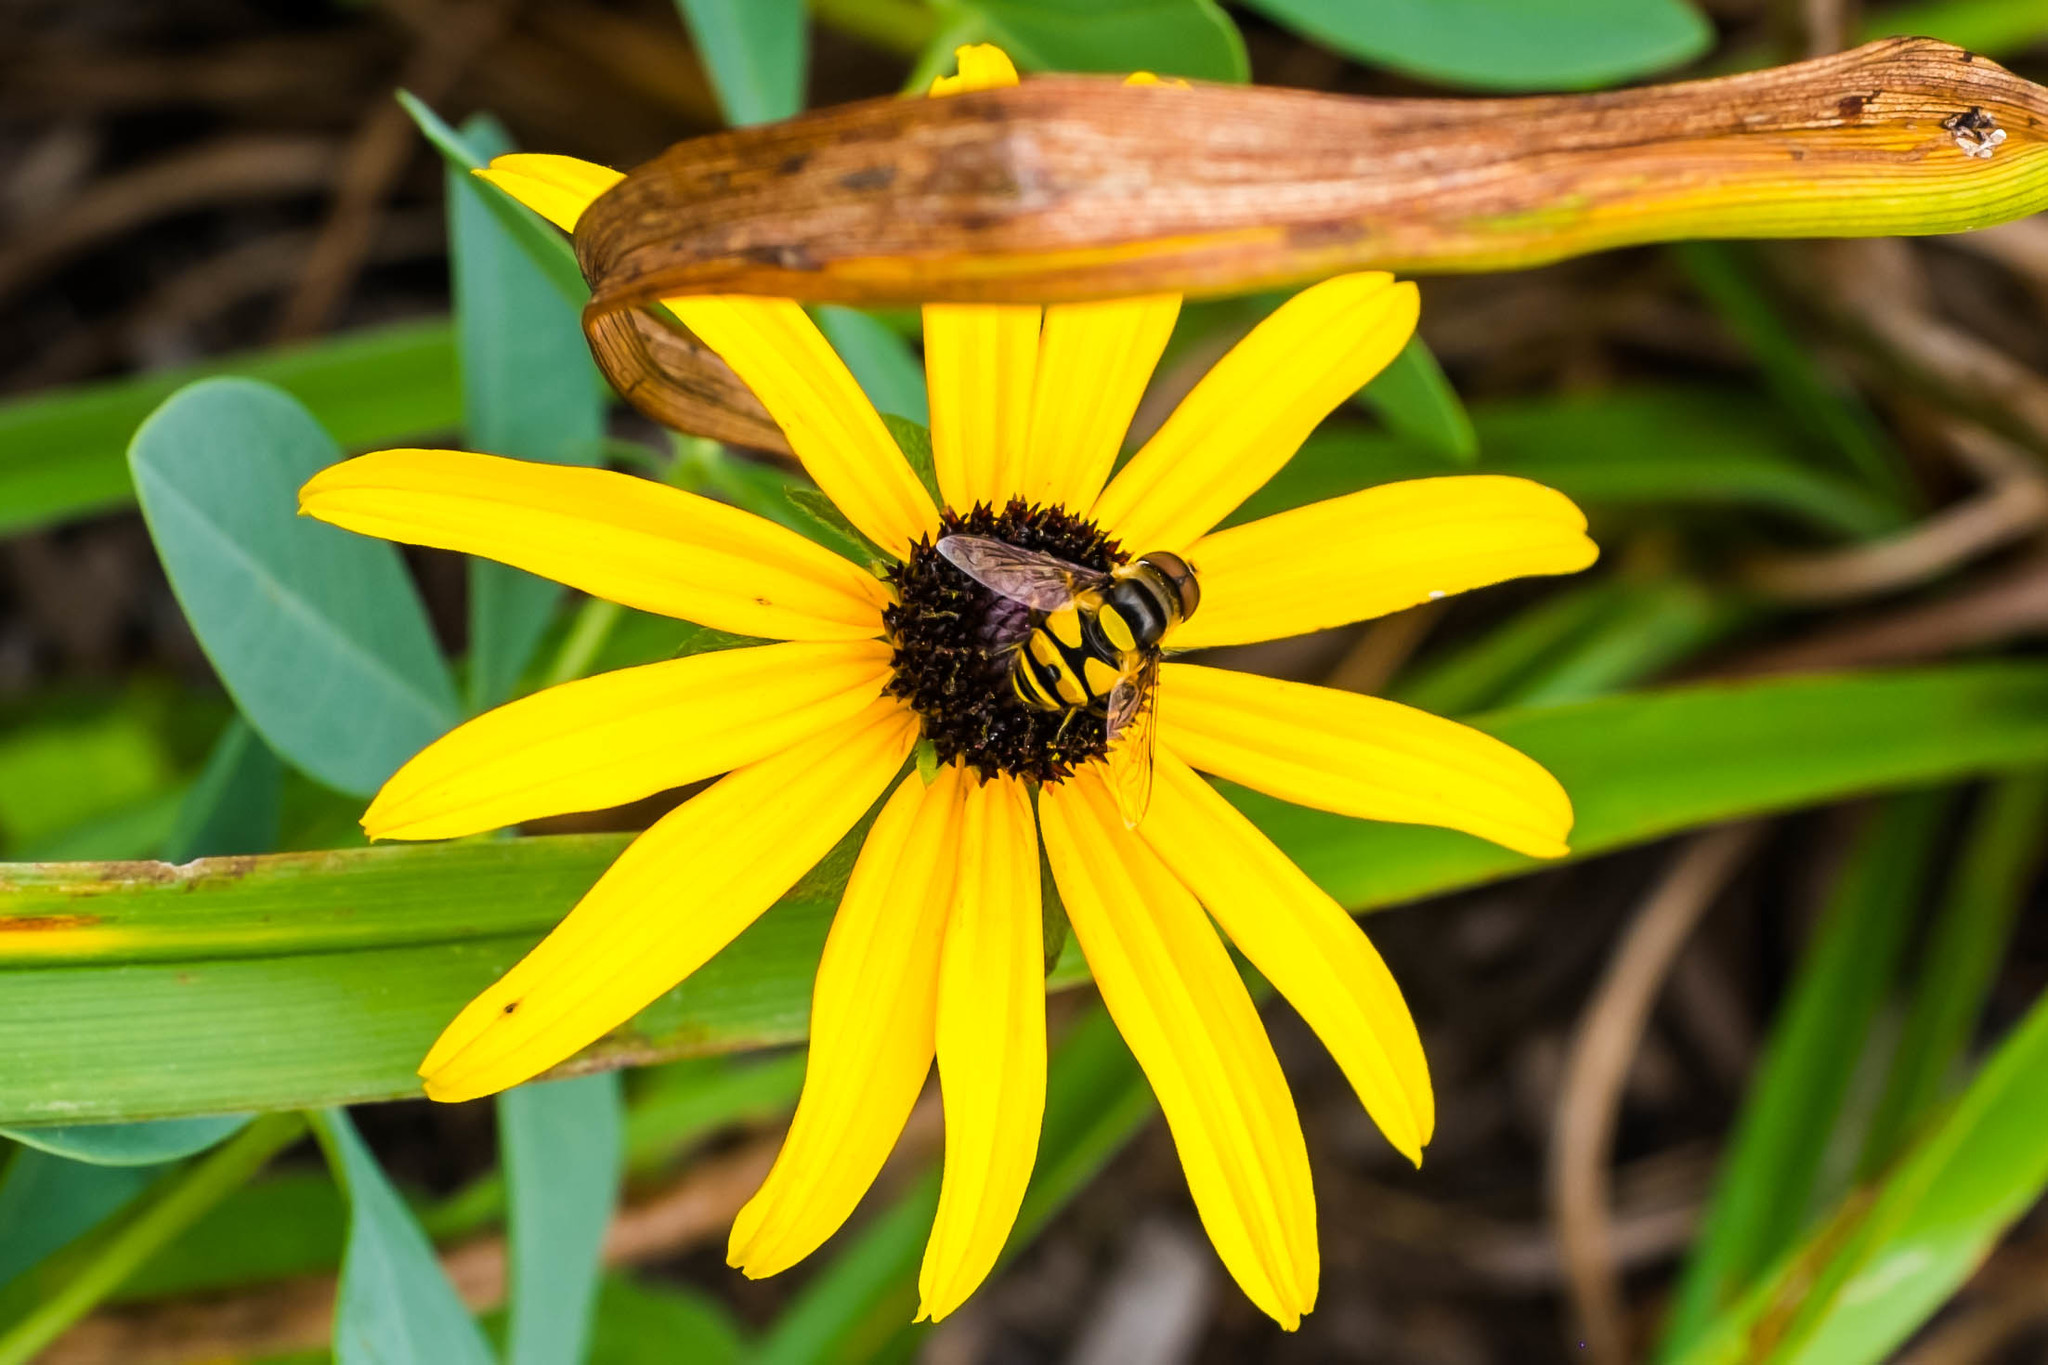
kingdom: Animalia
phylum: Arthropoda
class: Insecta
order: Diptera
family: Syrphidae
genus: Eristalis
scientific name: Eristalis transversa
